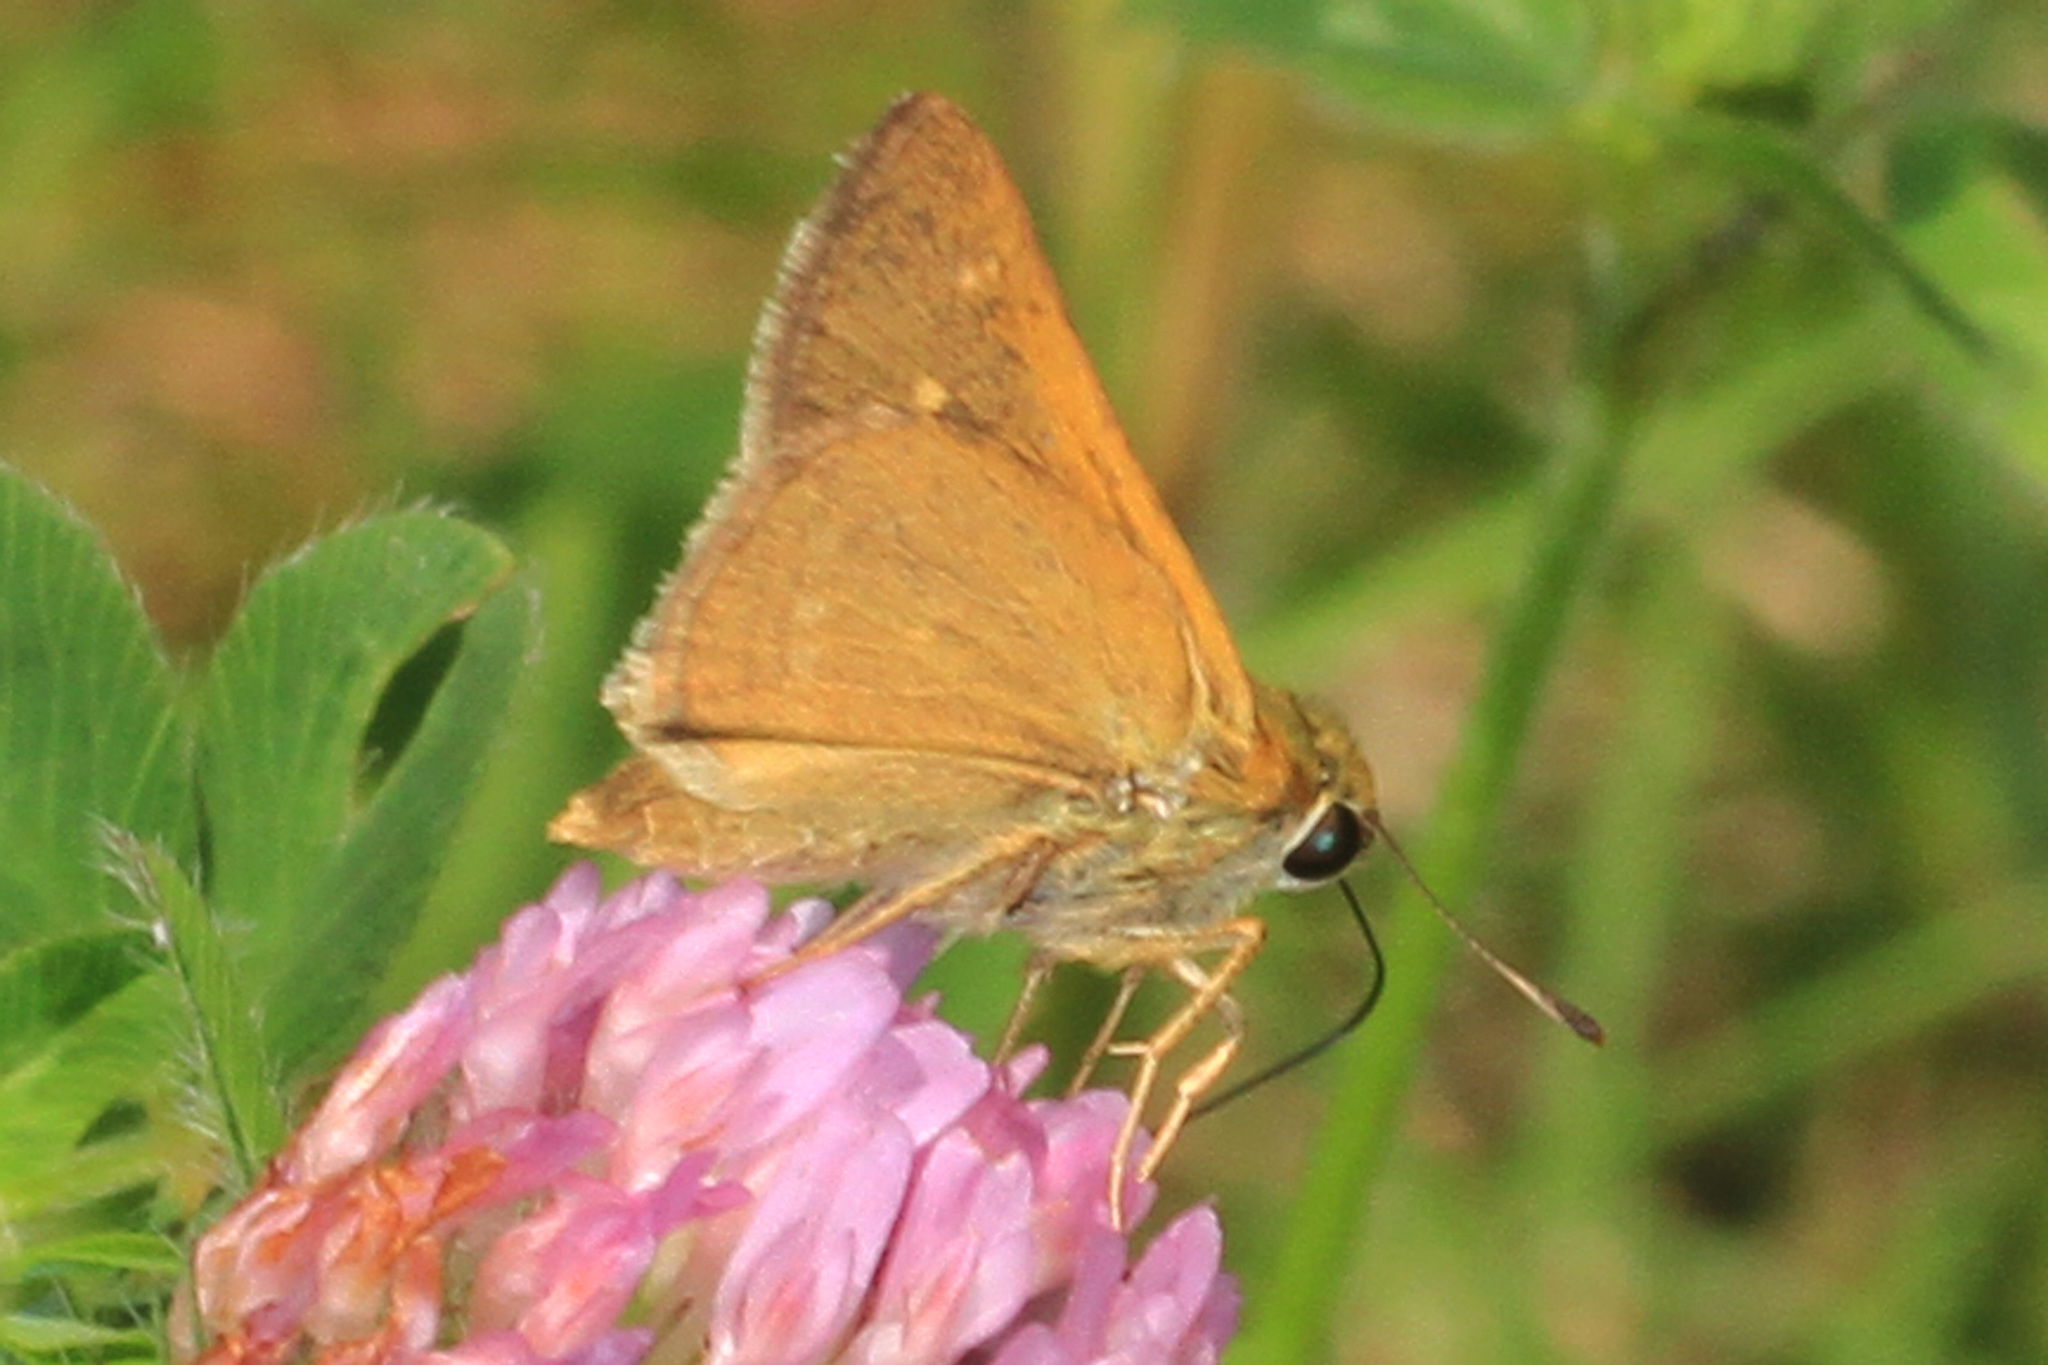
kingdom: Animalia
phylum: Arthropoda
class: Insecta
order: Lepidoptera
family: Hesperiidae
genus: Polites
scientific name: Polites themistocles
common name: Tawny-edged skipper
